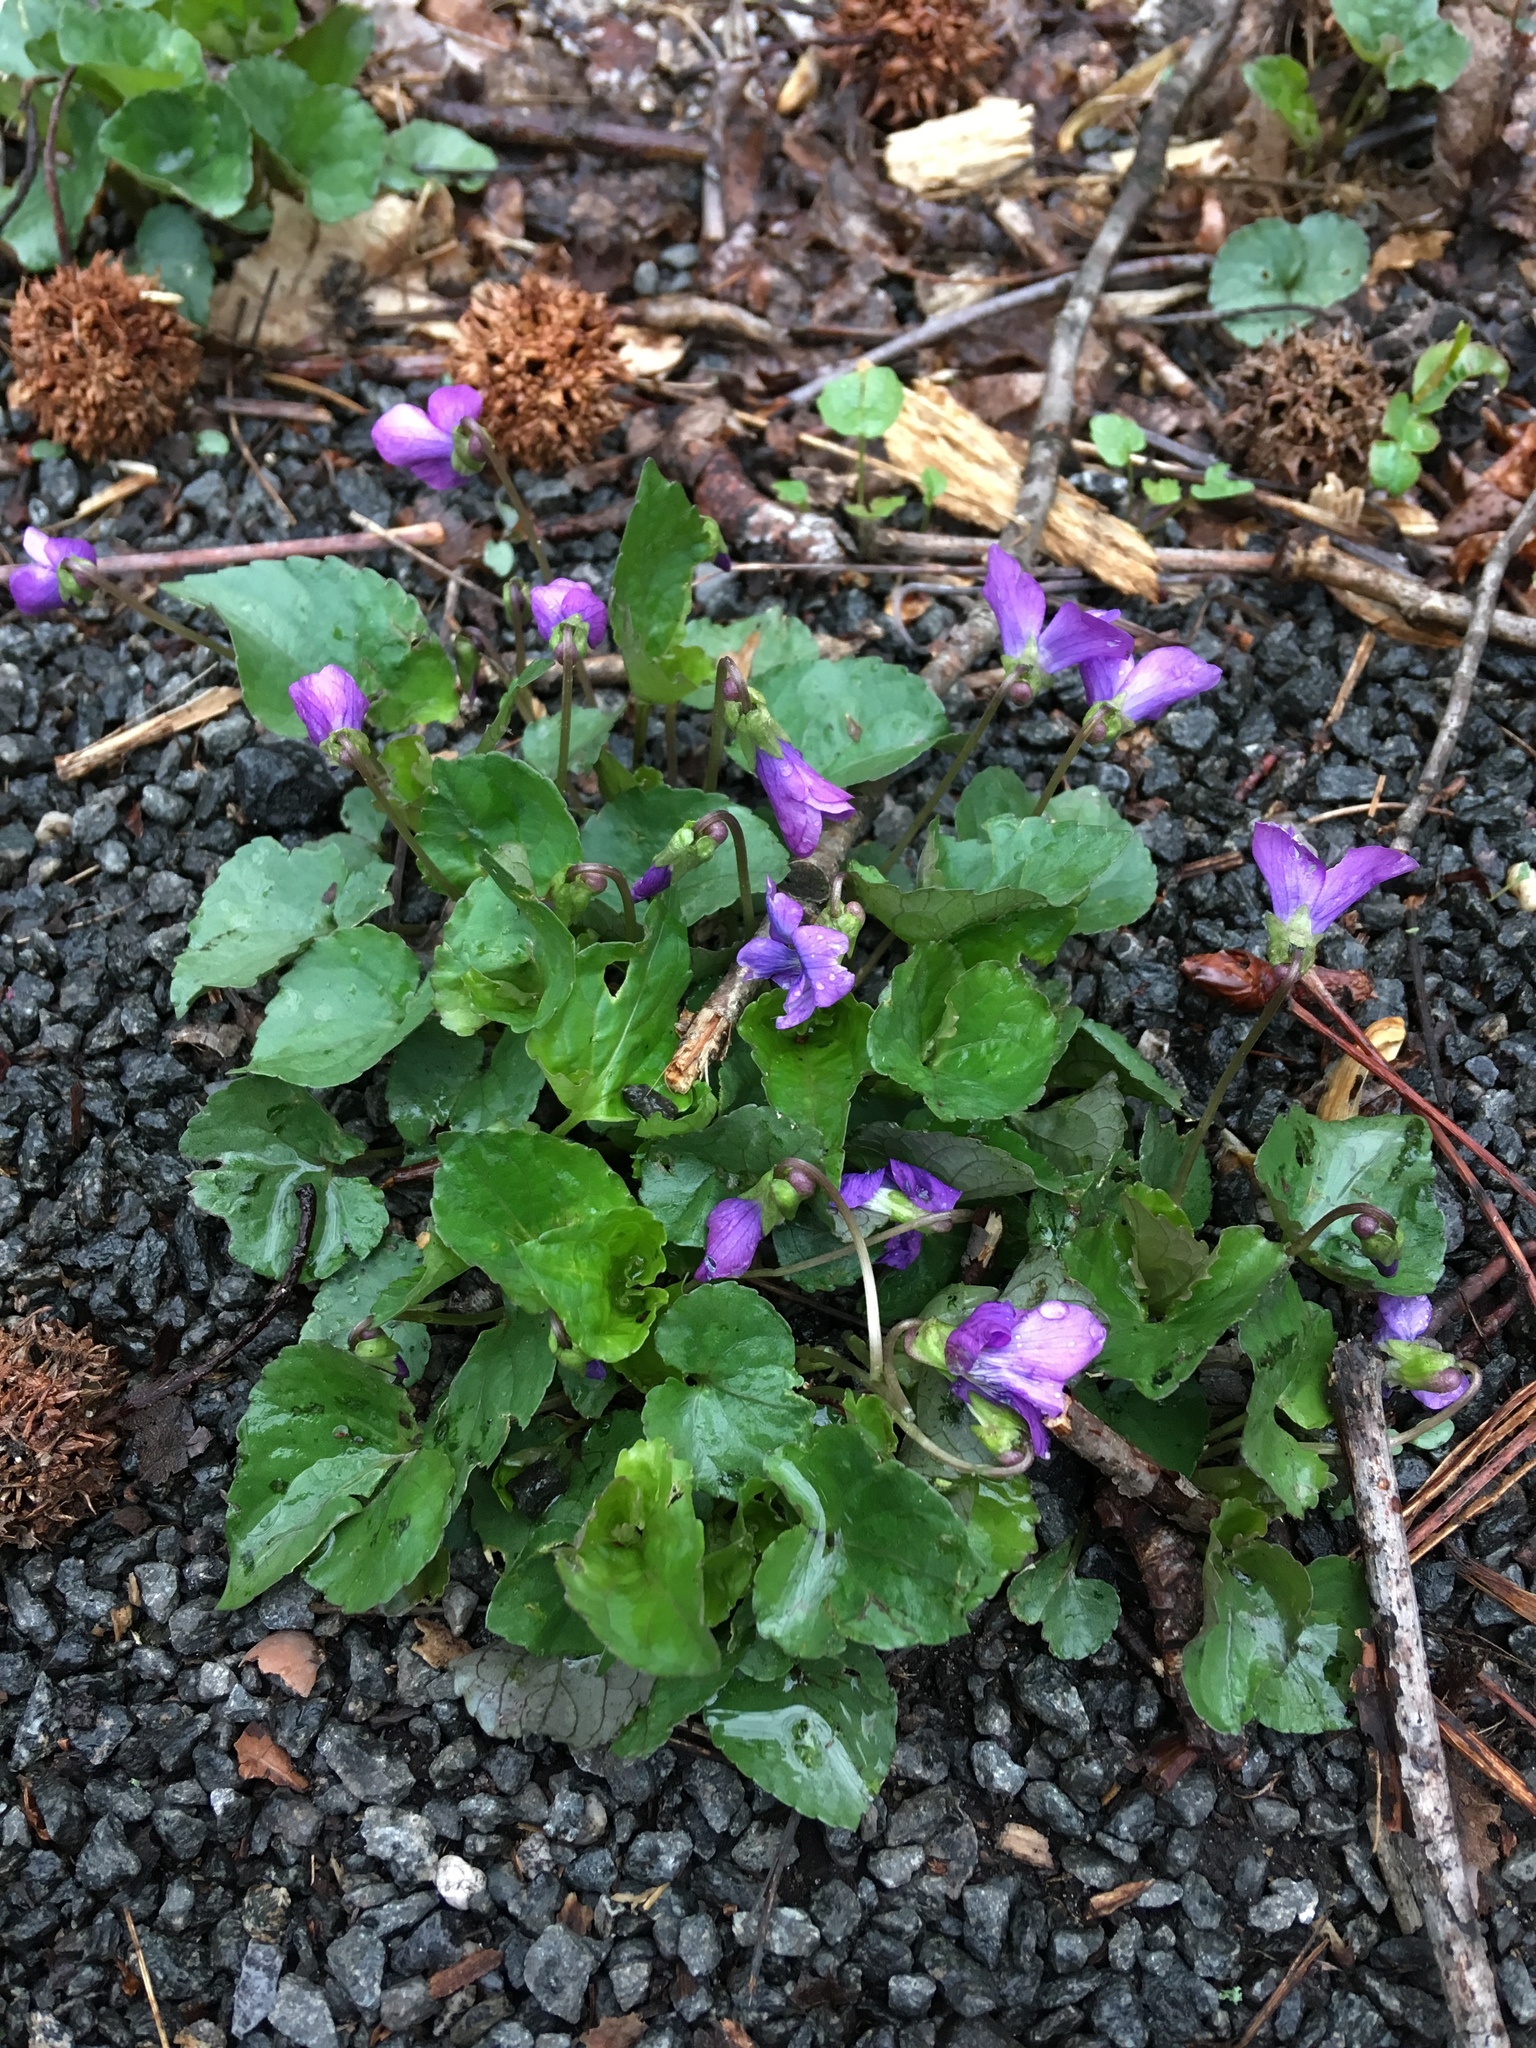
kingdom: Plantae
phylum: Tracheophyta
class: Magnoliopsida
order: Malpighiales
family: Violaceae
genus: Viola
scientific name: Viola sororia
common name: Dooryard violet
